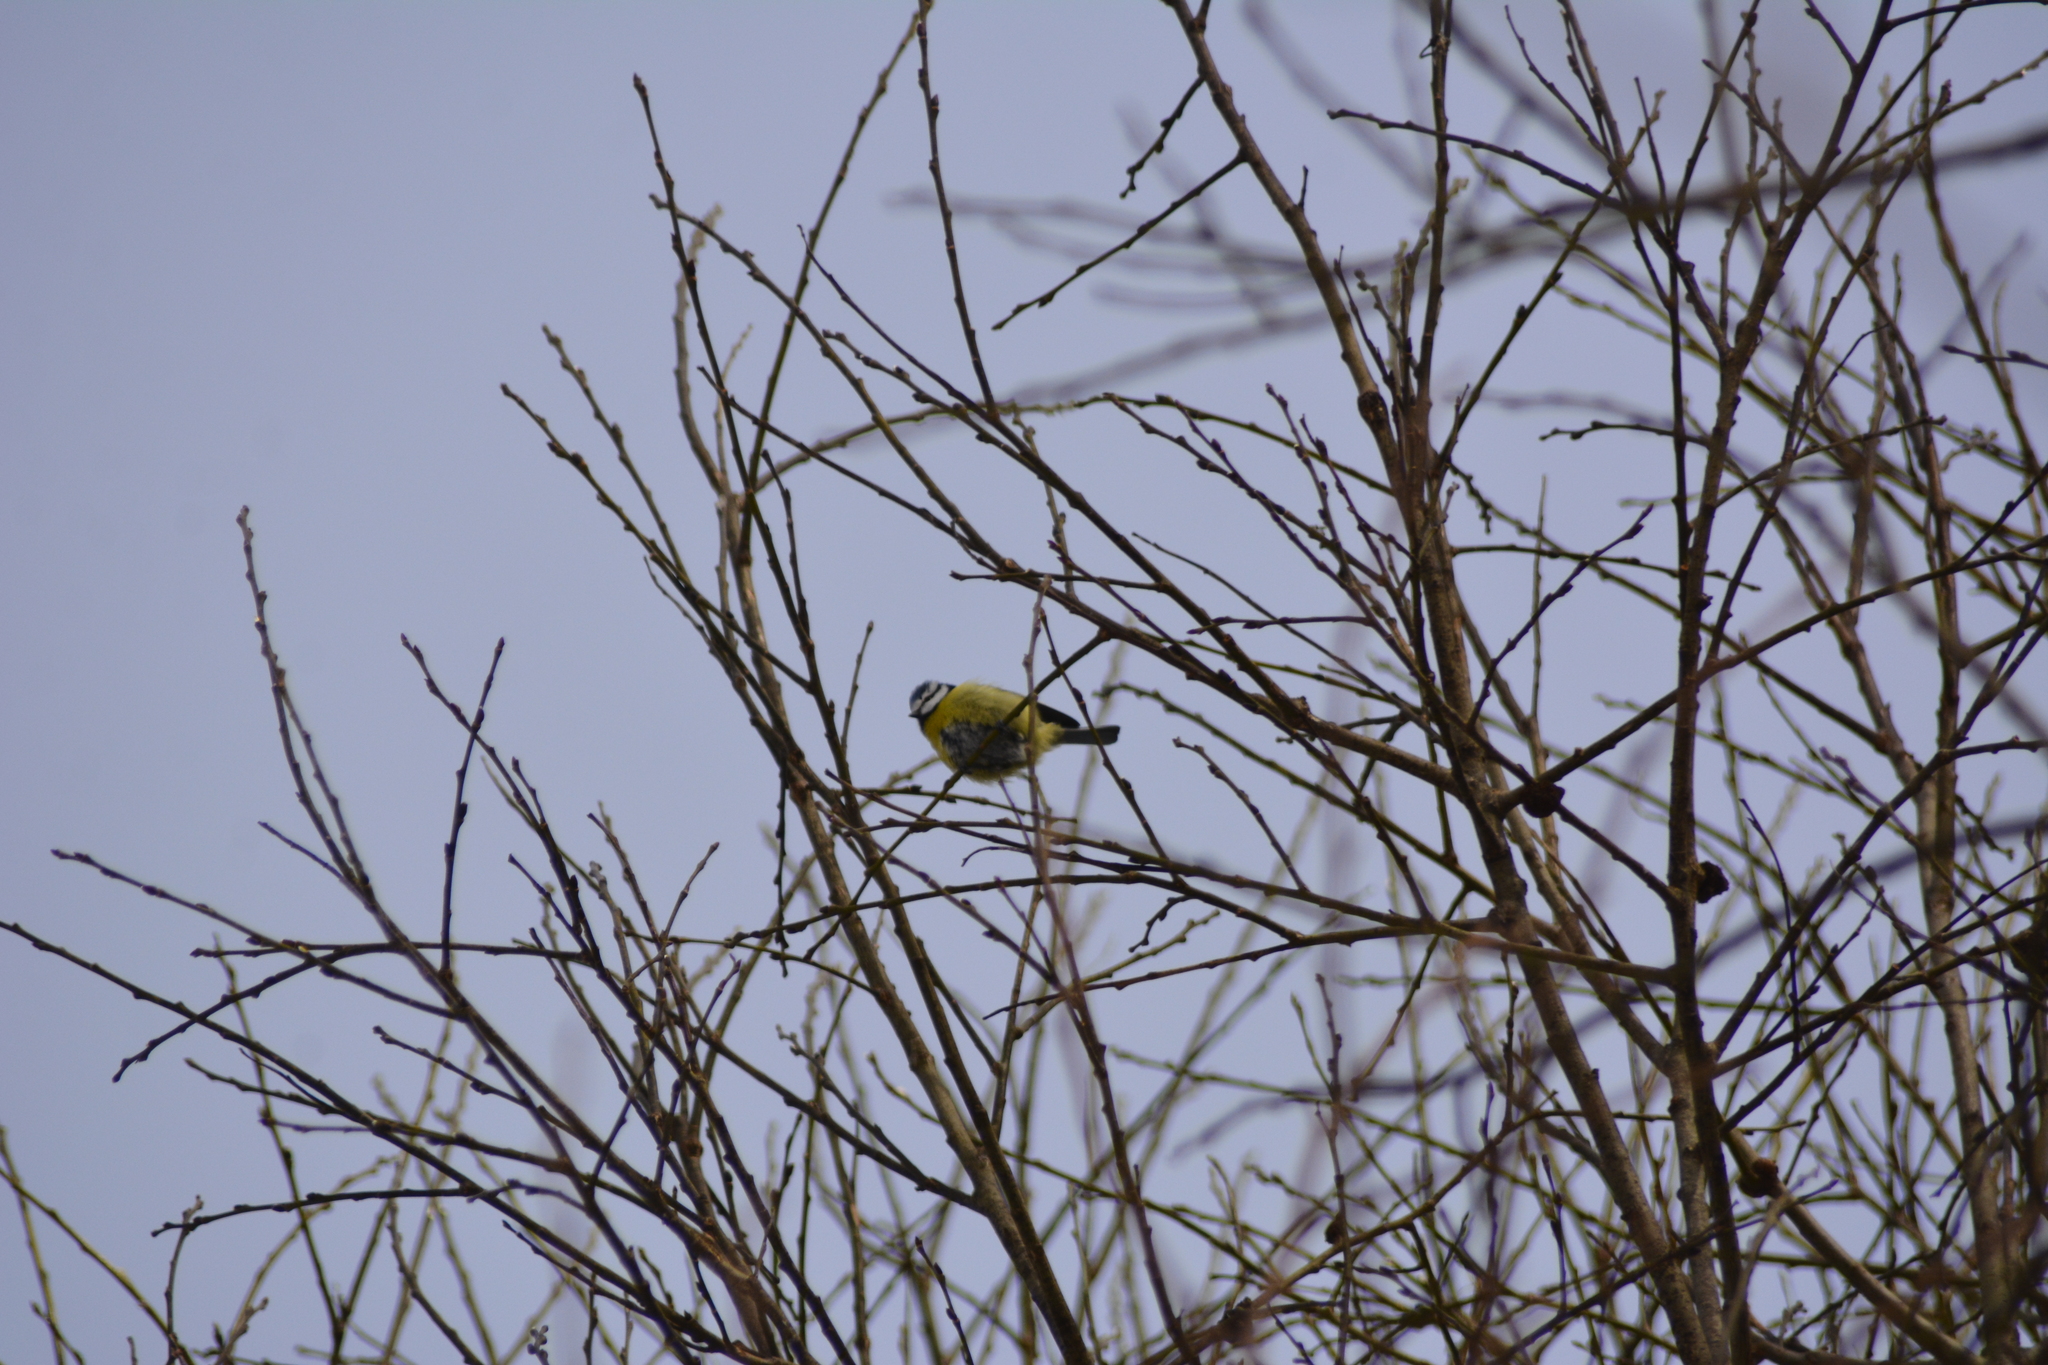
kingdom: Animalia
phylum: Chordata
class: Aves
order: Passeriformes
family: Paridae
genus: Cyanistes
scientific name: Cyanistes caeruleus
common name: Eurasian blue tit
